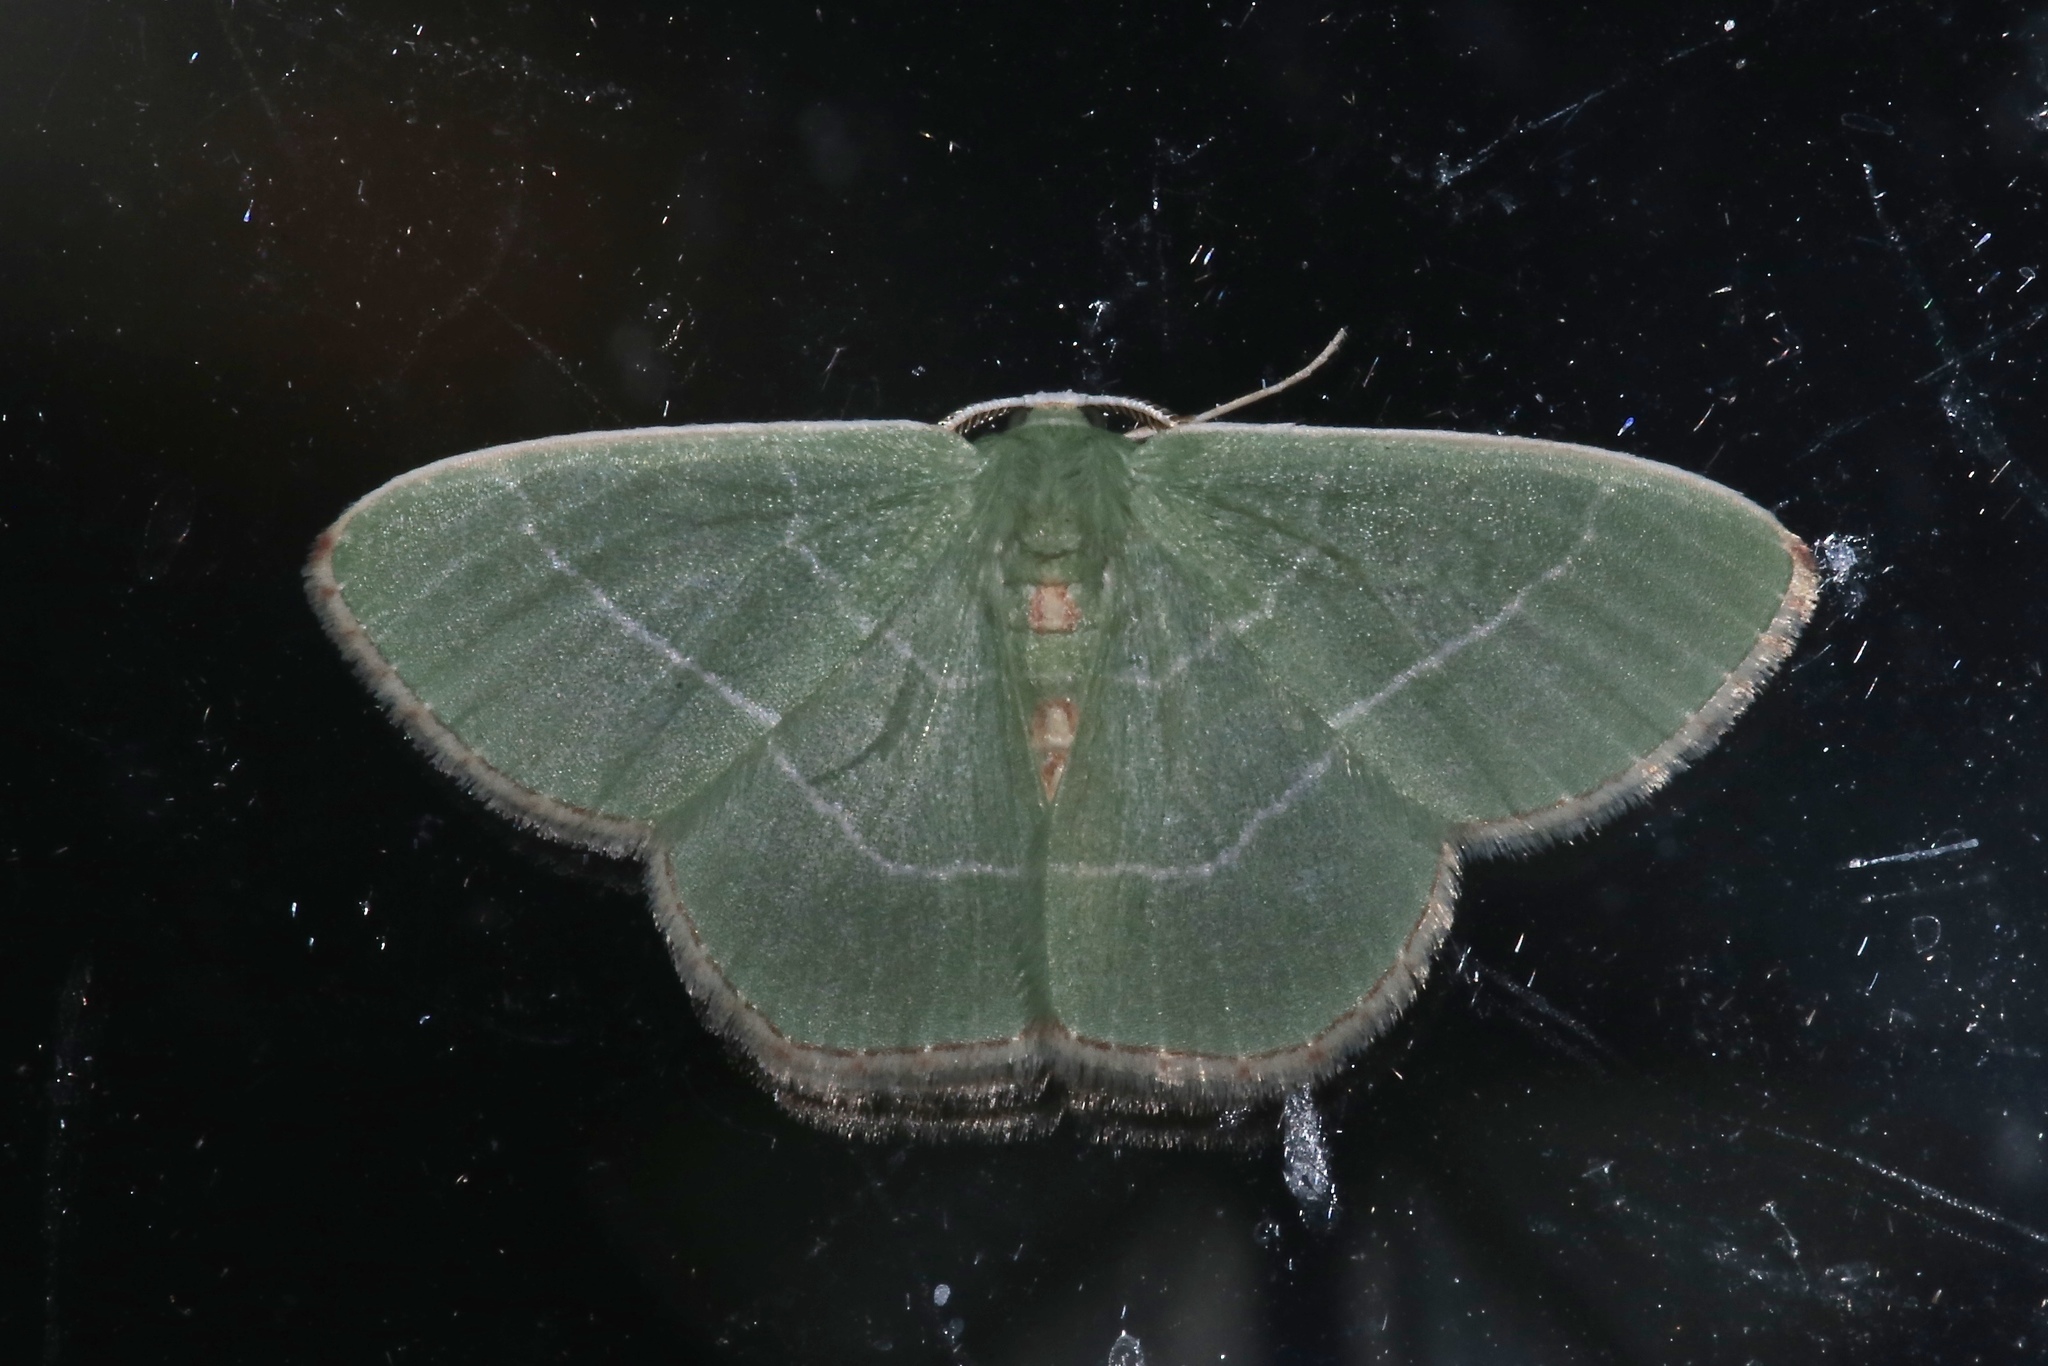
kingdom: Animalia
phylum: Arthropoda
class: Insecta
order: Lepidoptera
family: Geometridae
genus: Nemoria
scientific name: Nemoria bistriaria
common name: Red-fringed emerald
